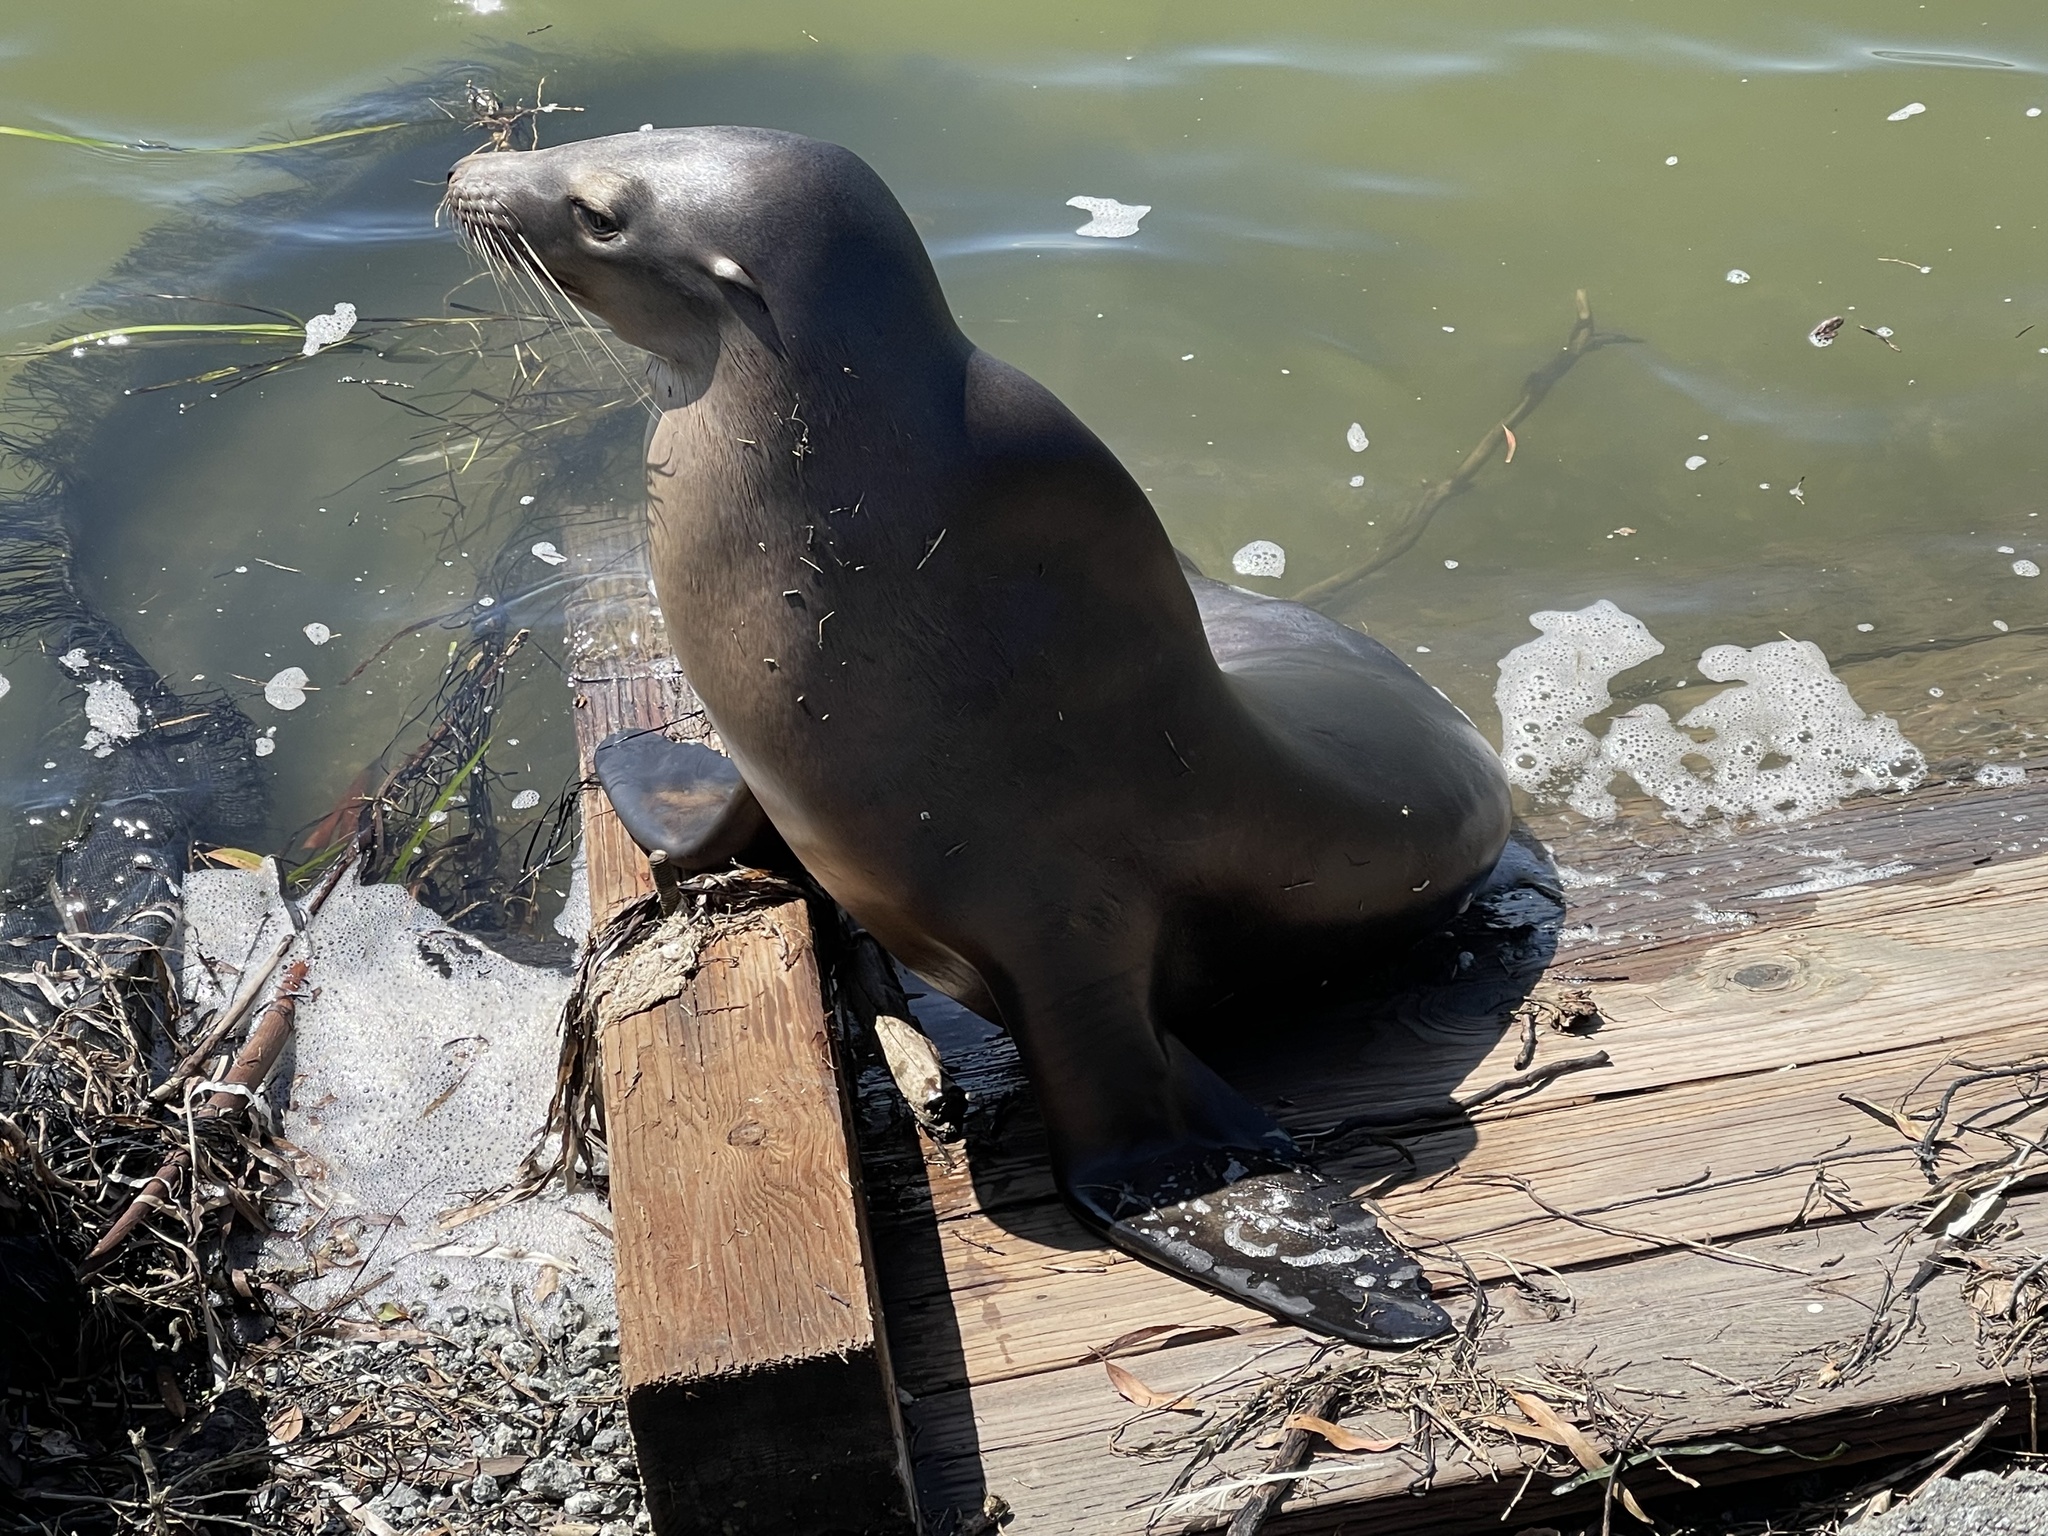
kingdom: Animalia
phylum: Chordata
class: Mammalia
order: Carnivora
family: Otariidae
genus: Zalophus
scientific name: Zalophus californianus
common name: California sea lion
